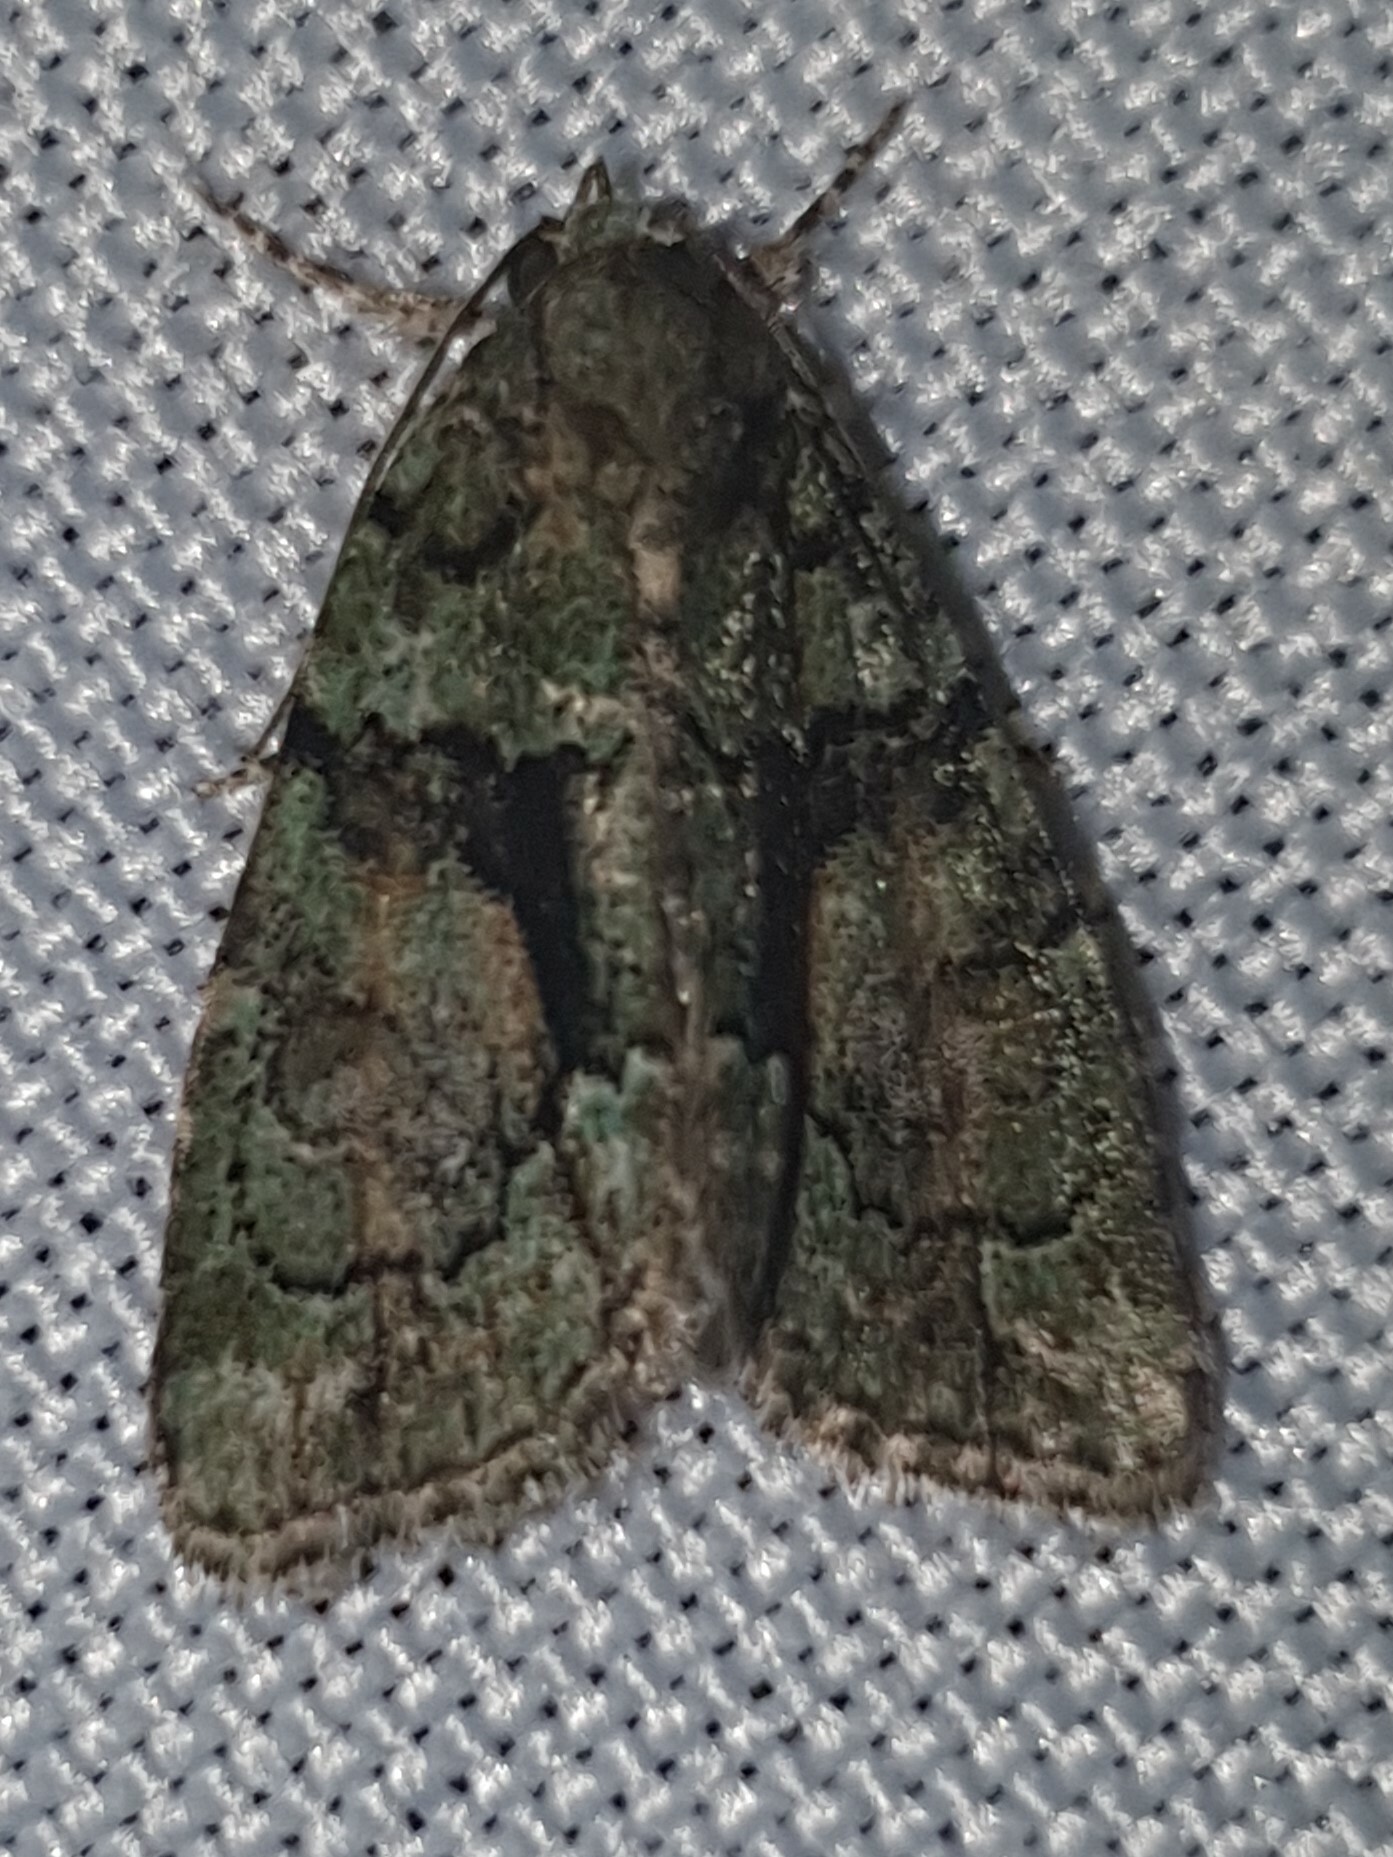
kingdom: Animalia
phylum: Arthropoda
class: Insecta
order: Lepidoptera
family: Noctuidae
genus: Cryphia
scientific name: Cryphia algae
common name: Tree-lichen beauty
